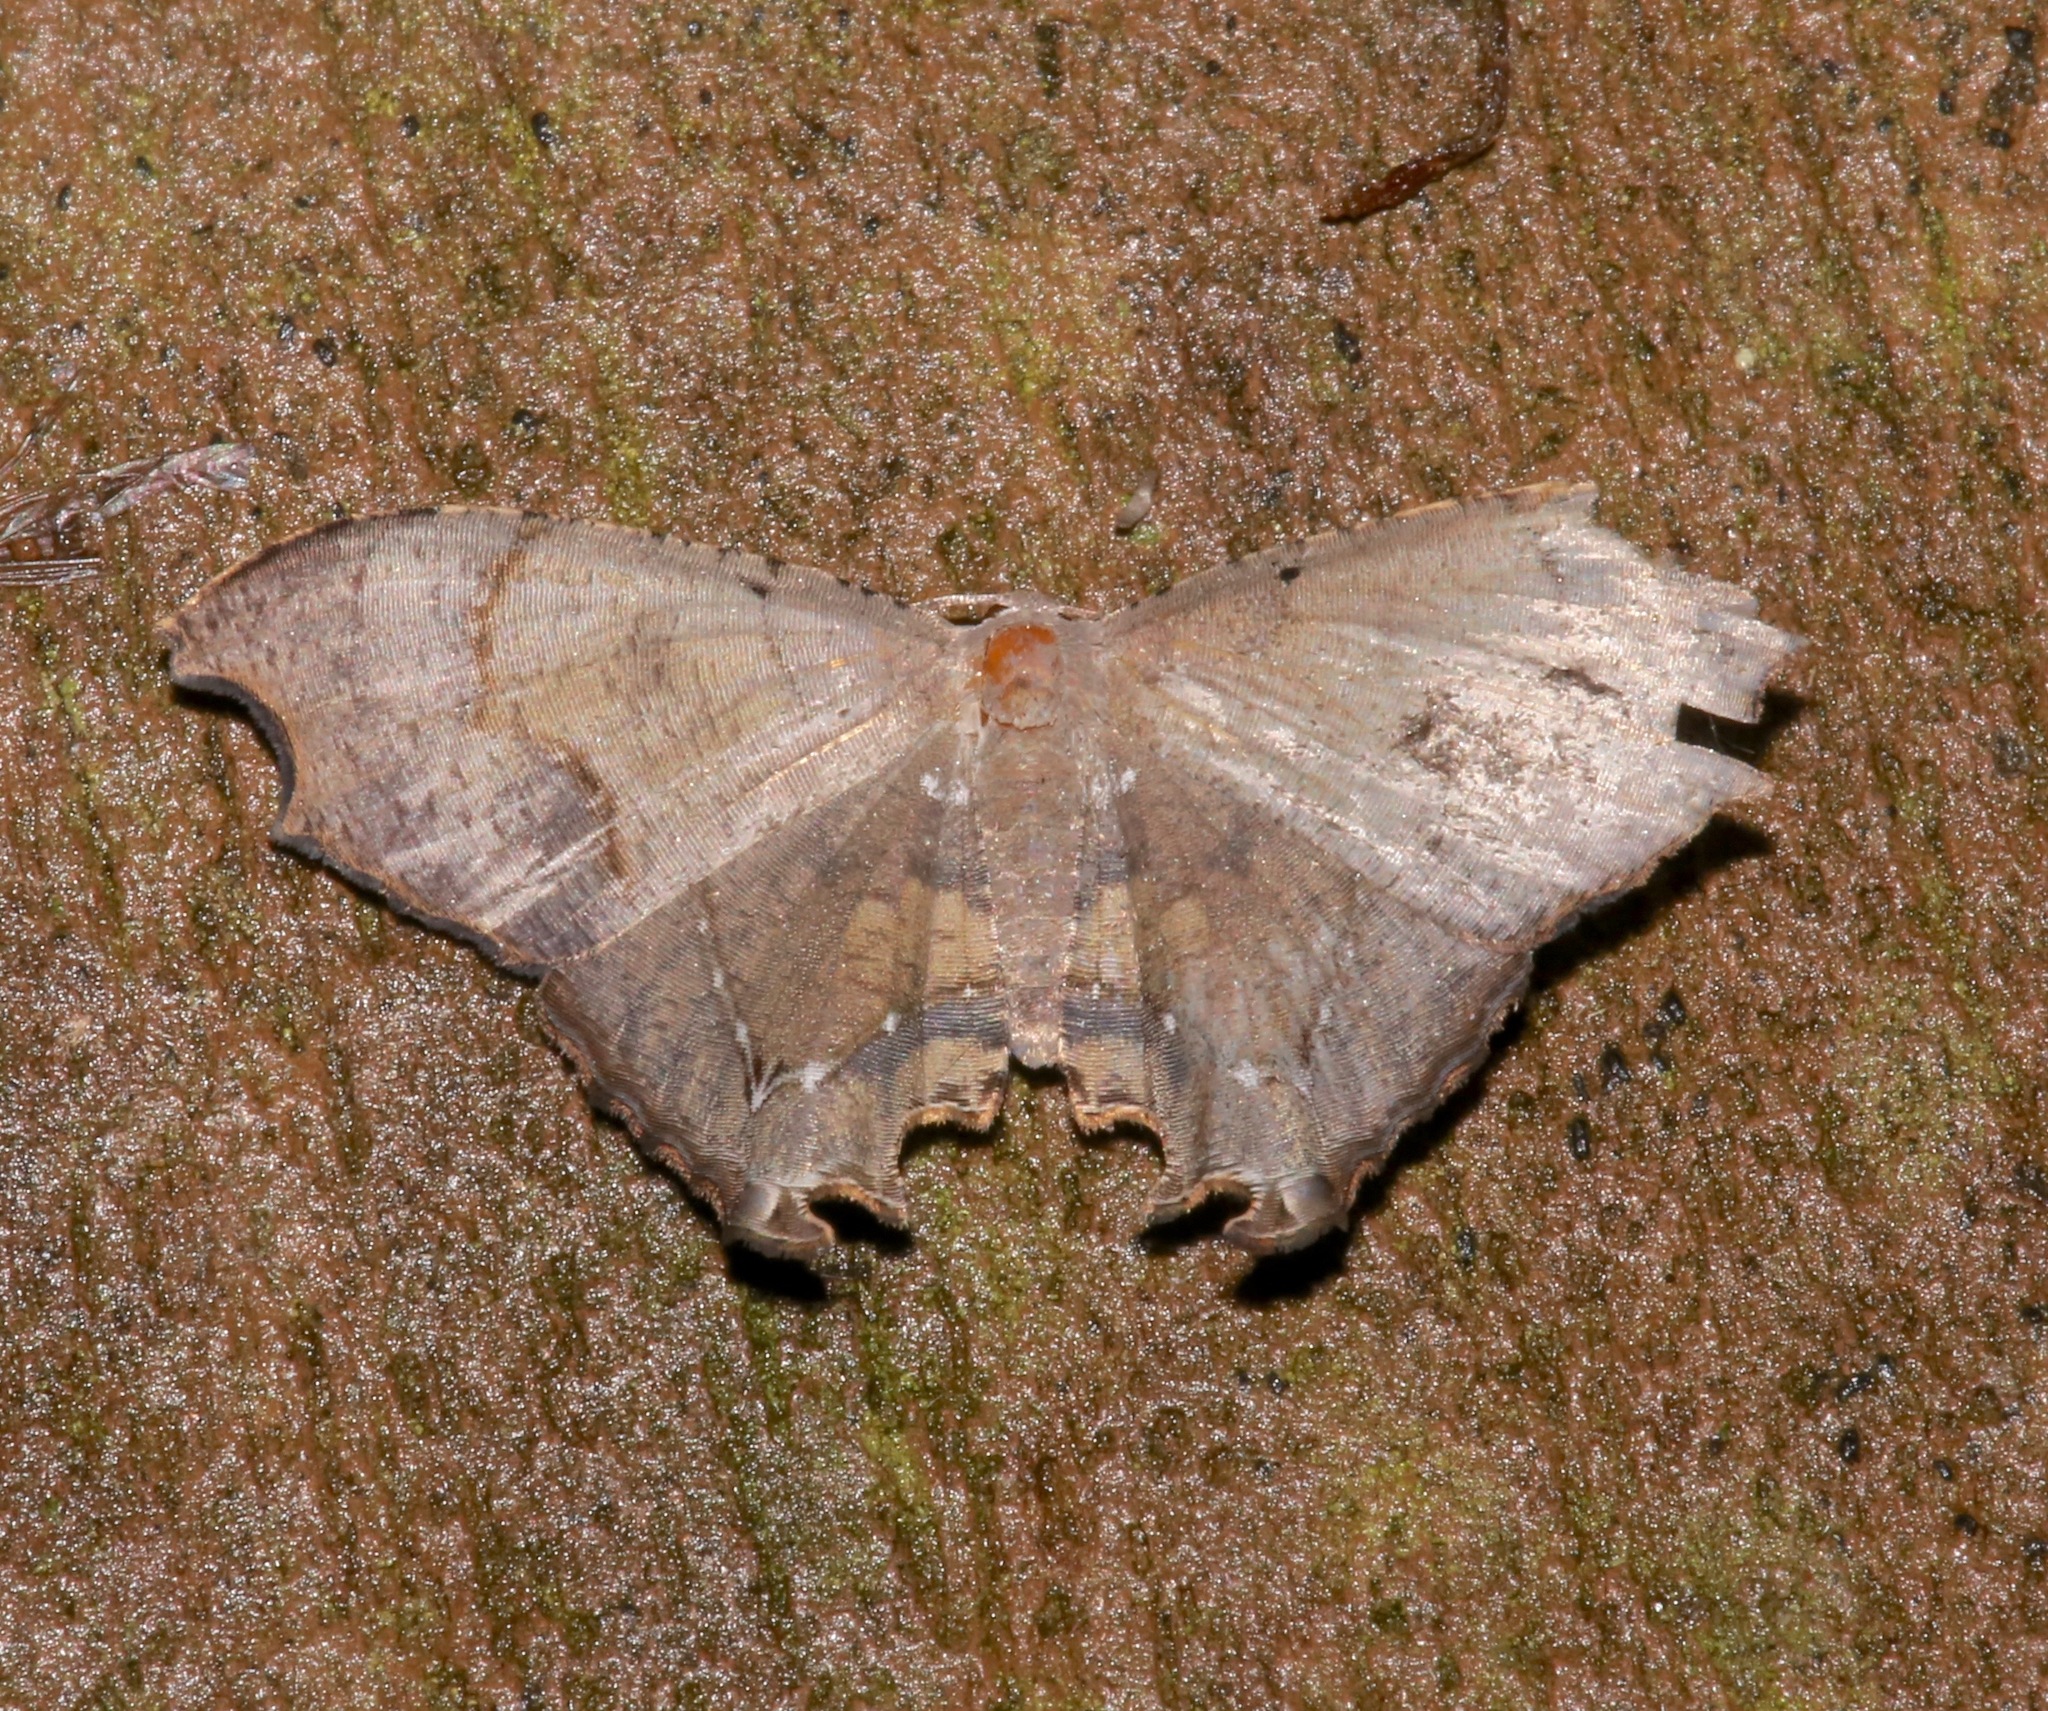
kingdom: Animalia
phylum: Arthropoda
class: Insecta
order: Lepidoptera
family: Uraniidae
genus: Trotorhombia
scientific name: Trotorhombia metachromata
